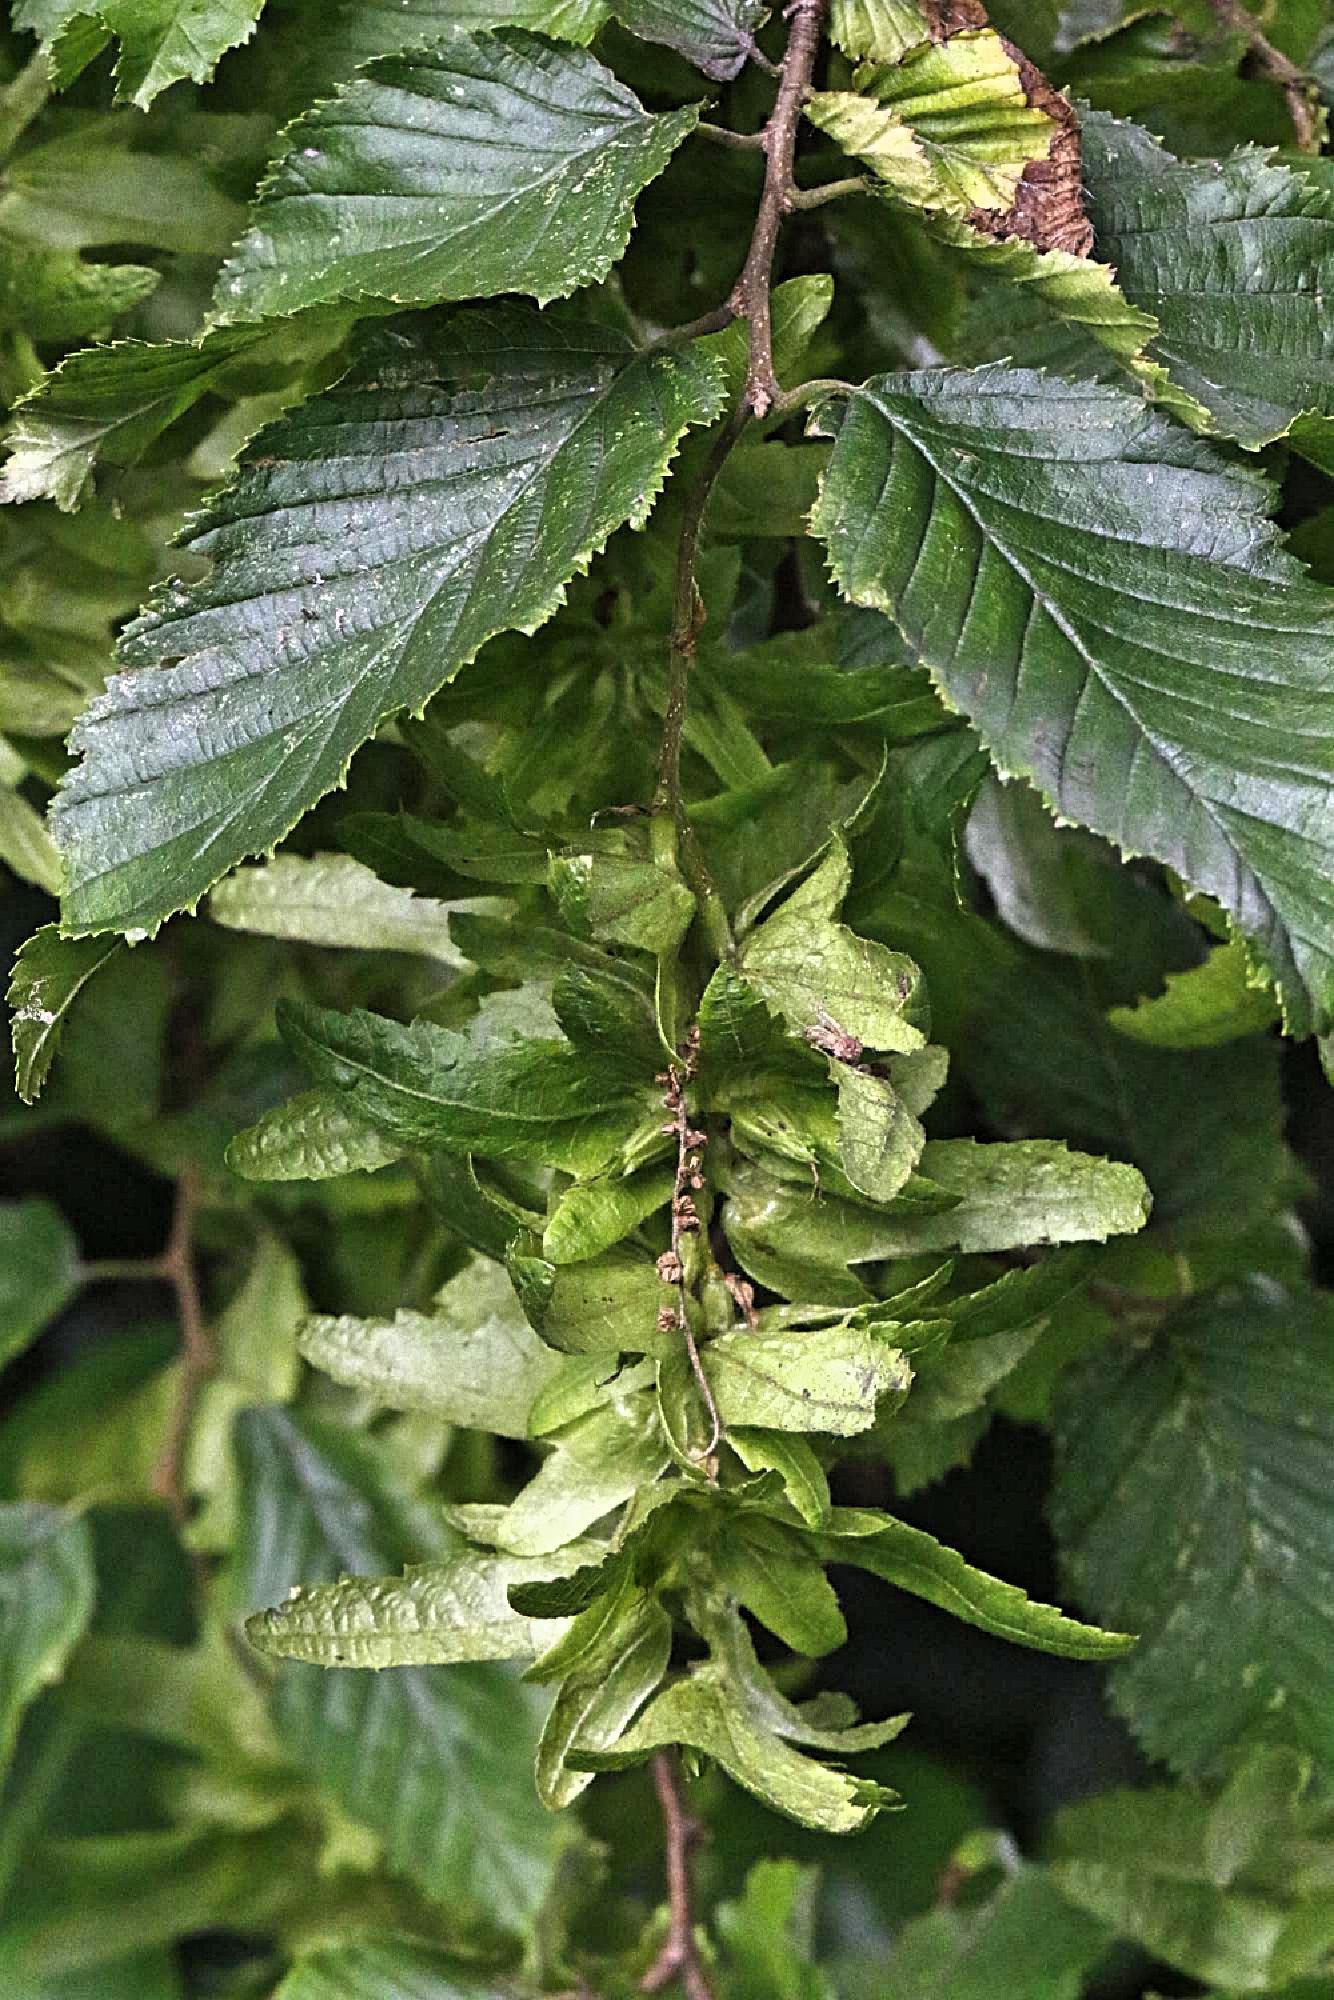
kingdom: Plantae
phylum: Tracheophyta
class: Magnoliopsida
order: Fagales
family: Betulaceae
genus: Carpinus
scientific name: Carpinus betulus
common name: Hornbeam
